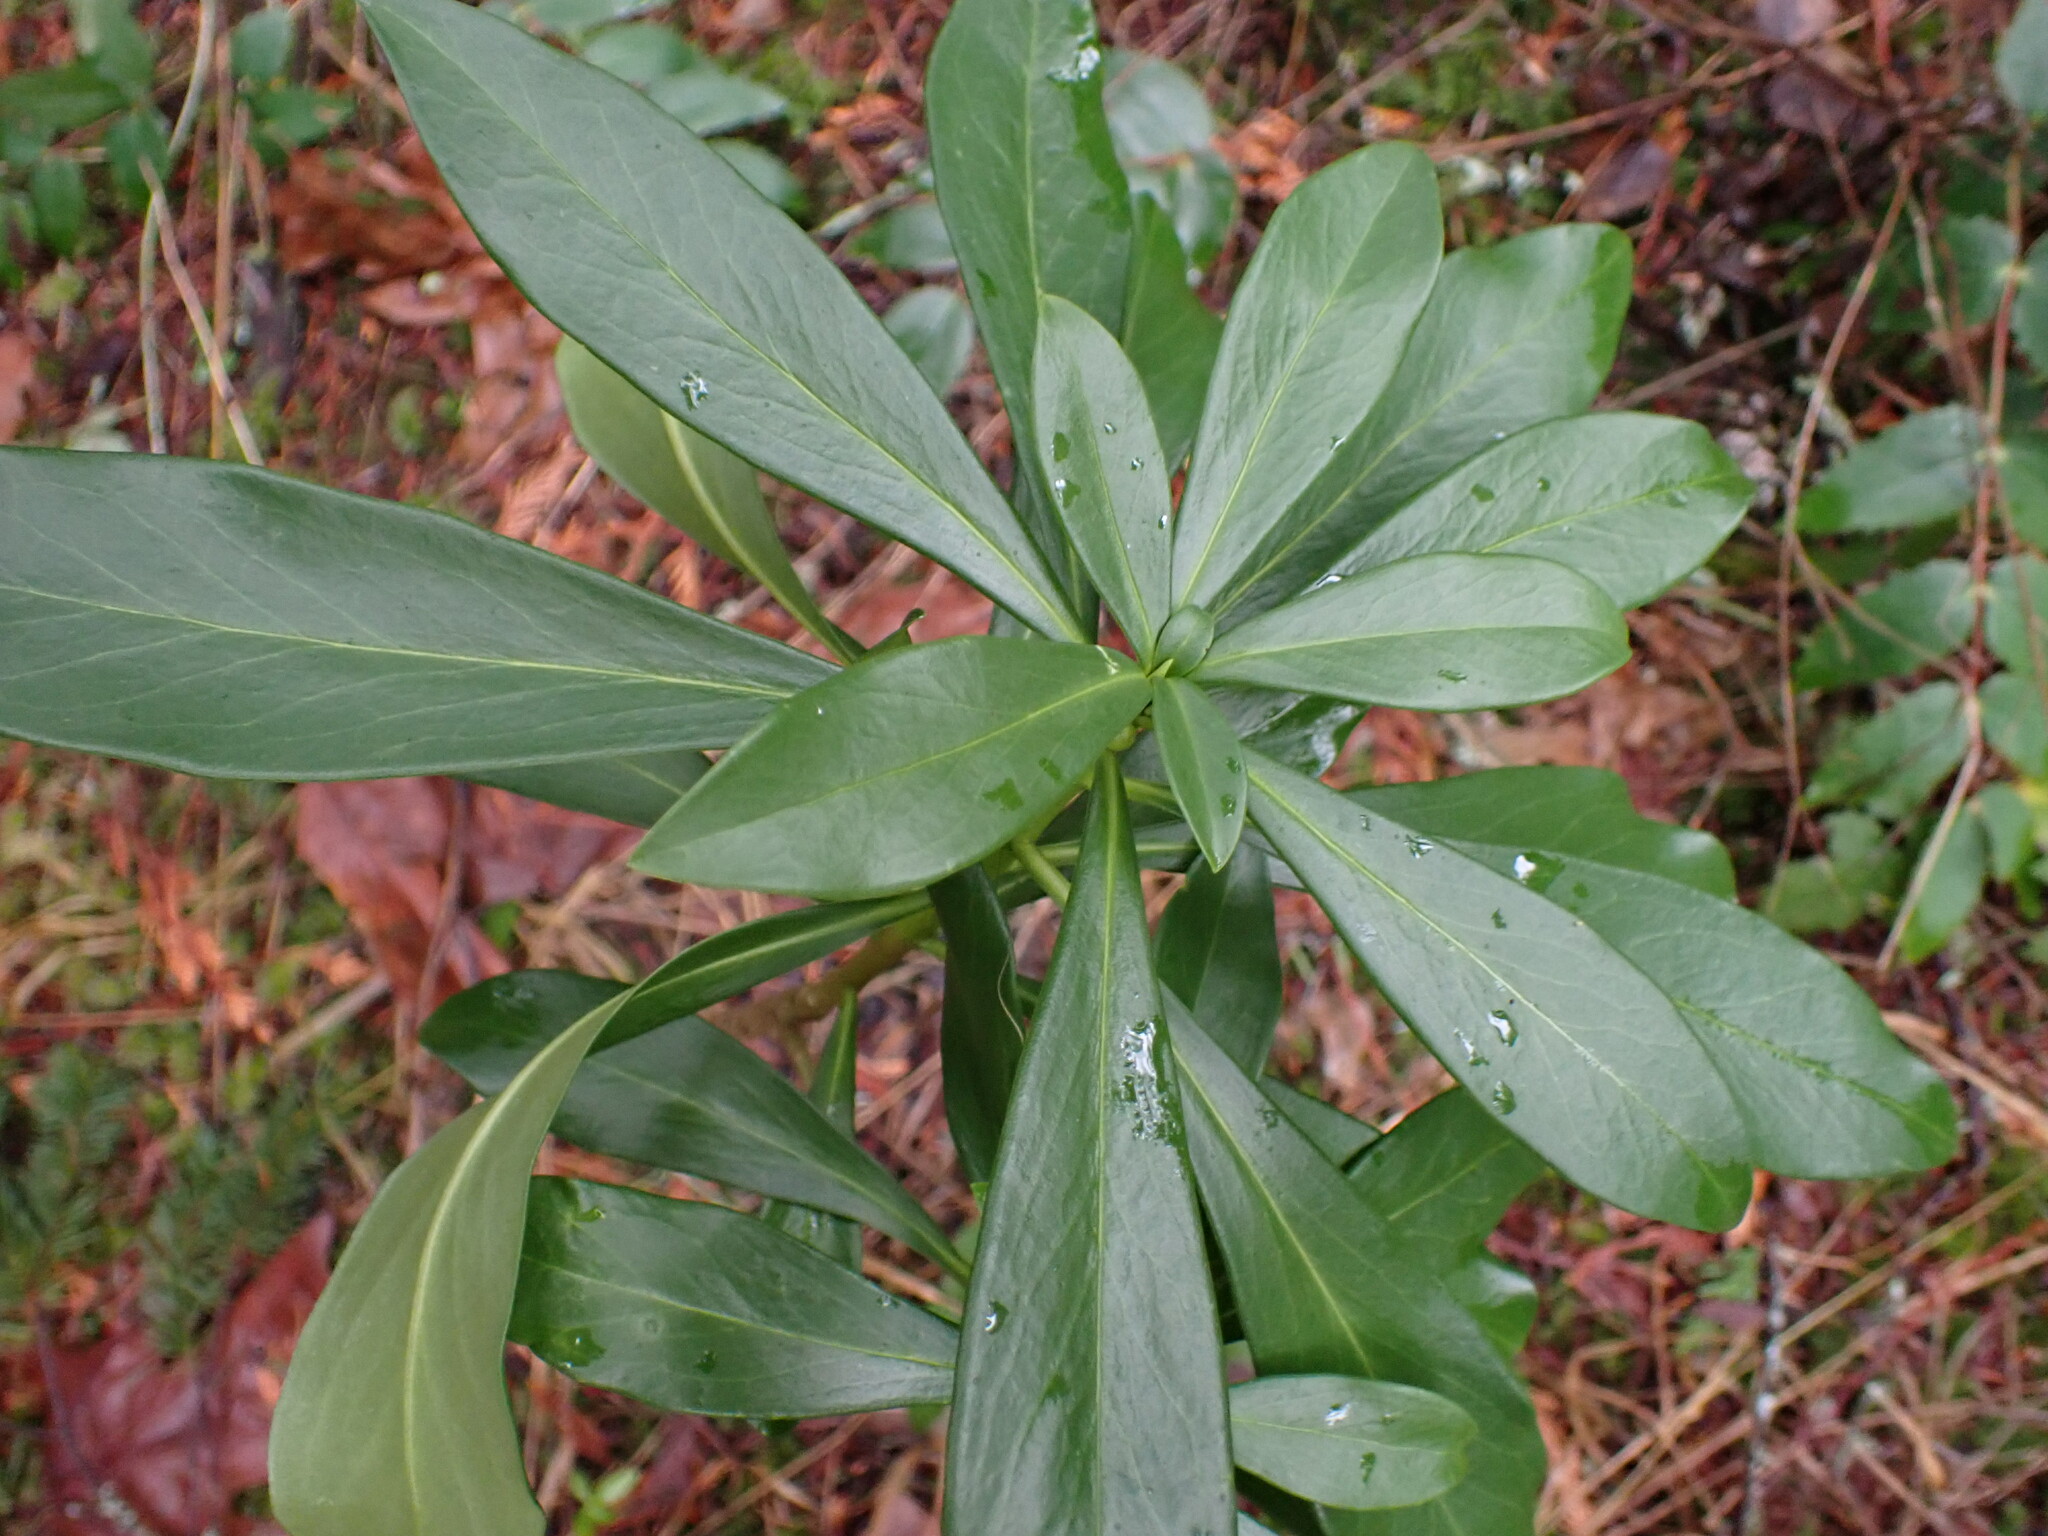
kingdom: Plantae
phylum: Tracheophyta
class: Magnoliopsida
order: Malvales
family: Thymelaeaceae
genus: Daphne
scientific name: Daphne laureola
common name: Spurge-laurel
